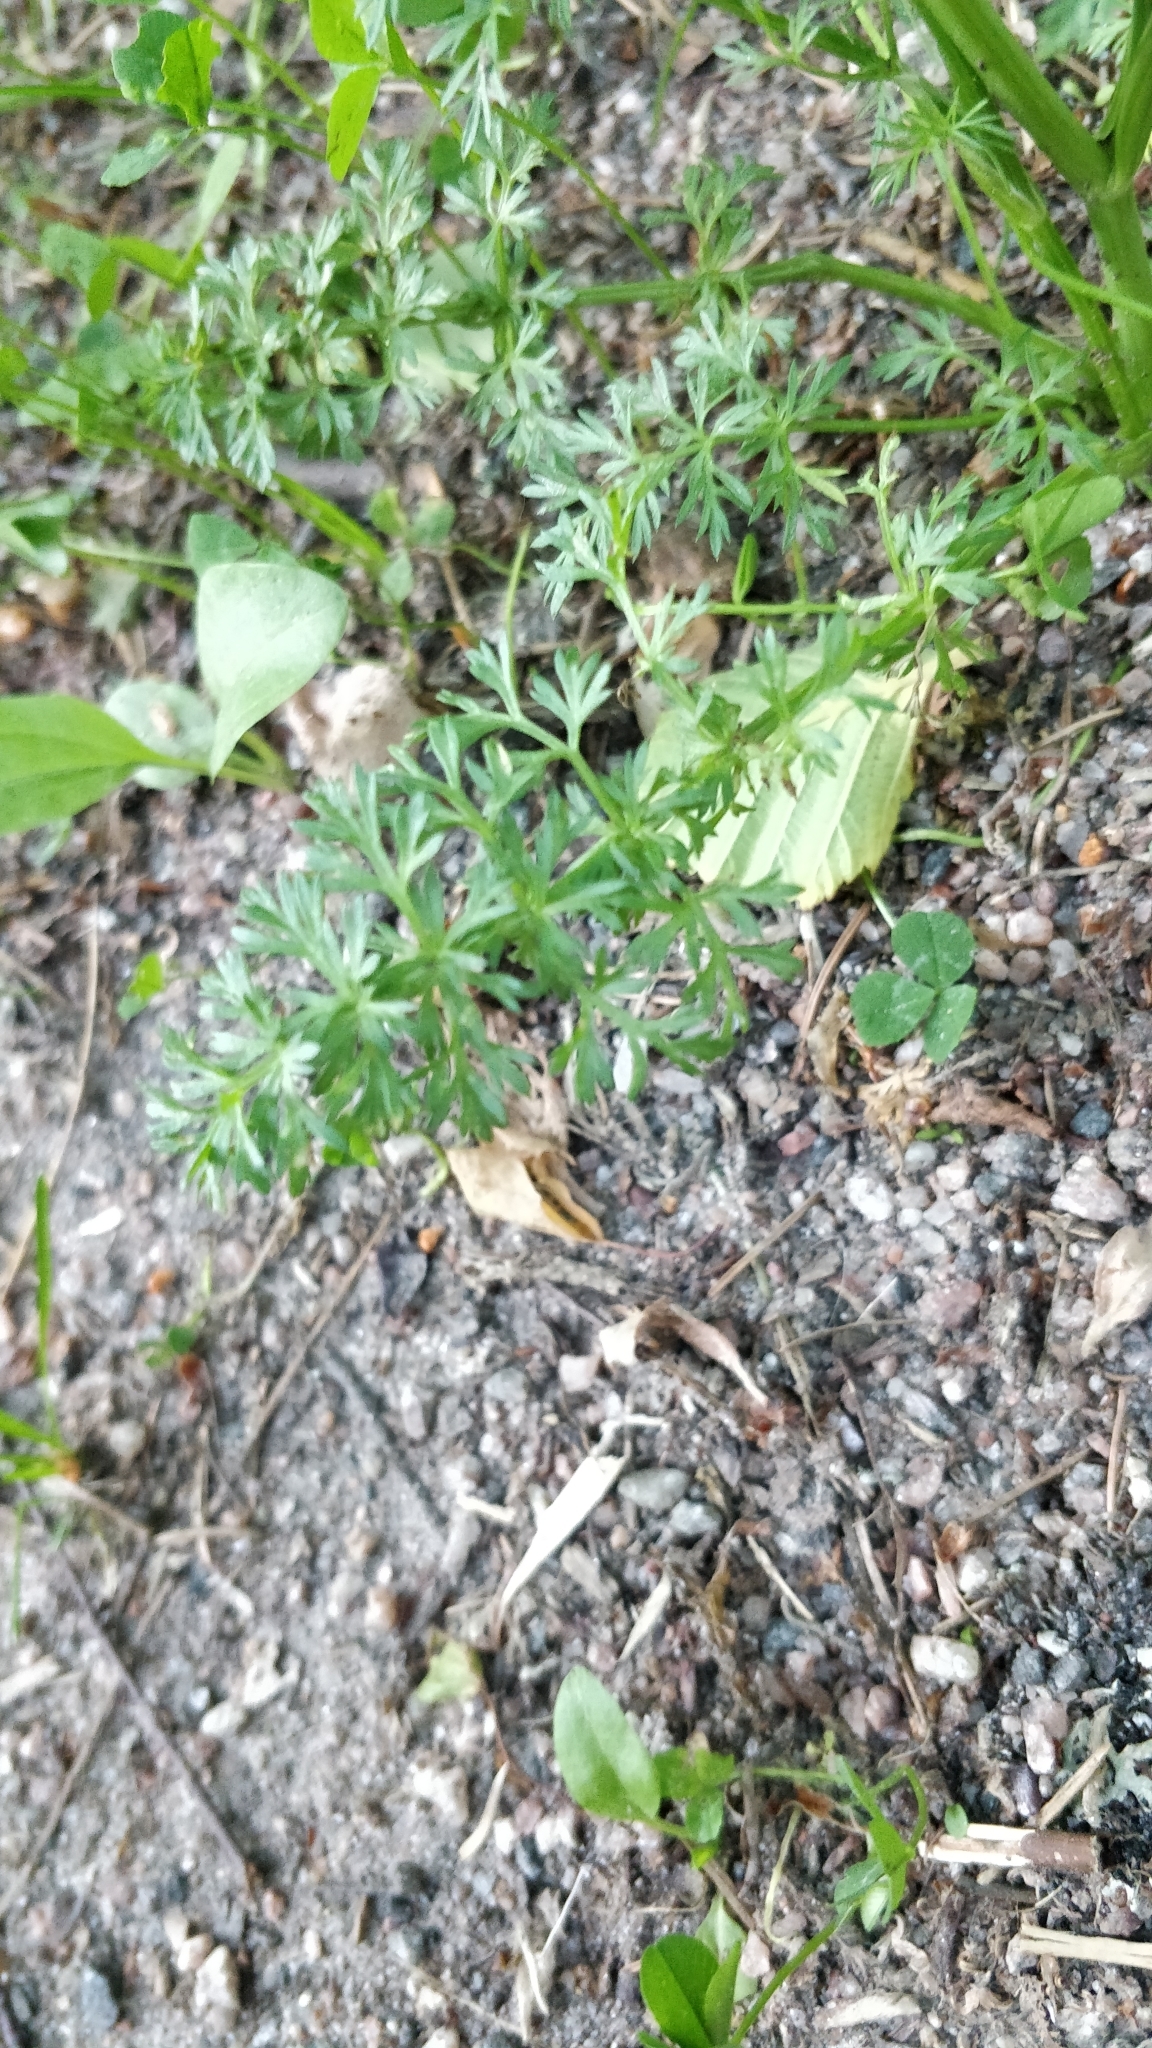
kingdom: Plantae
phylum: Tracheophyta
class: Magnoliopsida
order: Apiales
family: Apiaceae
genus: Carum
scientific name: Carum carvi
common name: Caraway
